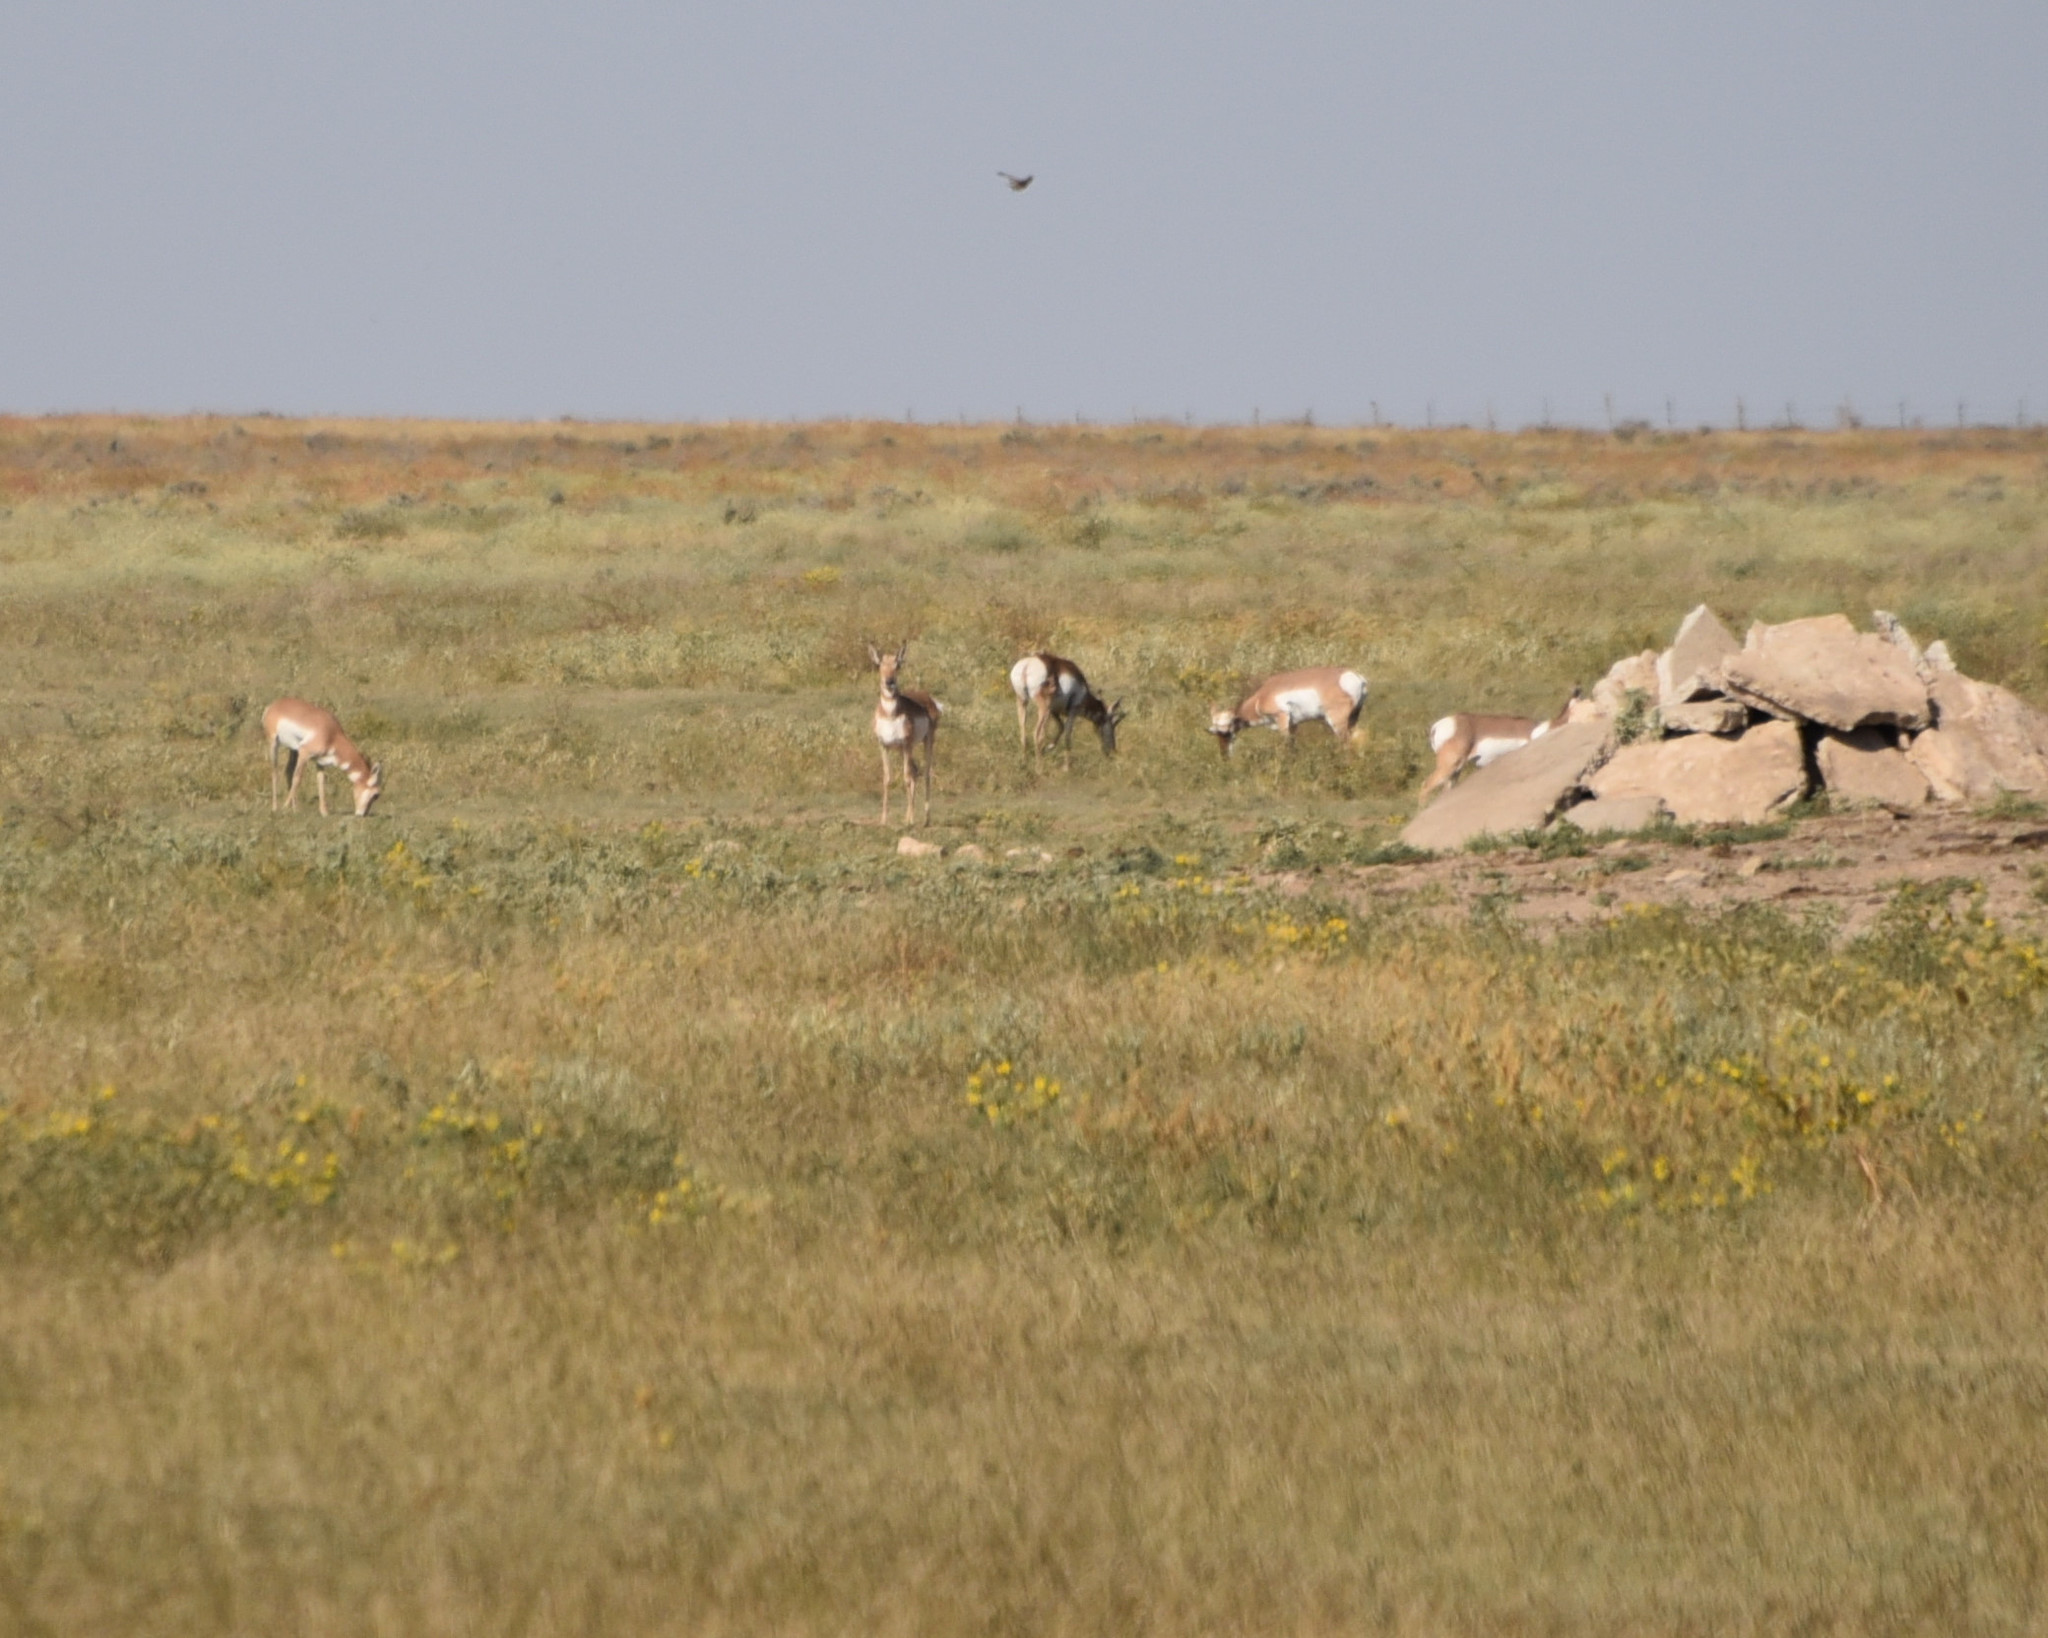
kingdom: Animalia
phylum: Chordata
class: Mammalia
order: Artiodactyla
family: Antilocapridae
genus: Antilocapra
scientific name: Antilocapra americana
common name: Pronghorn
